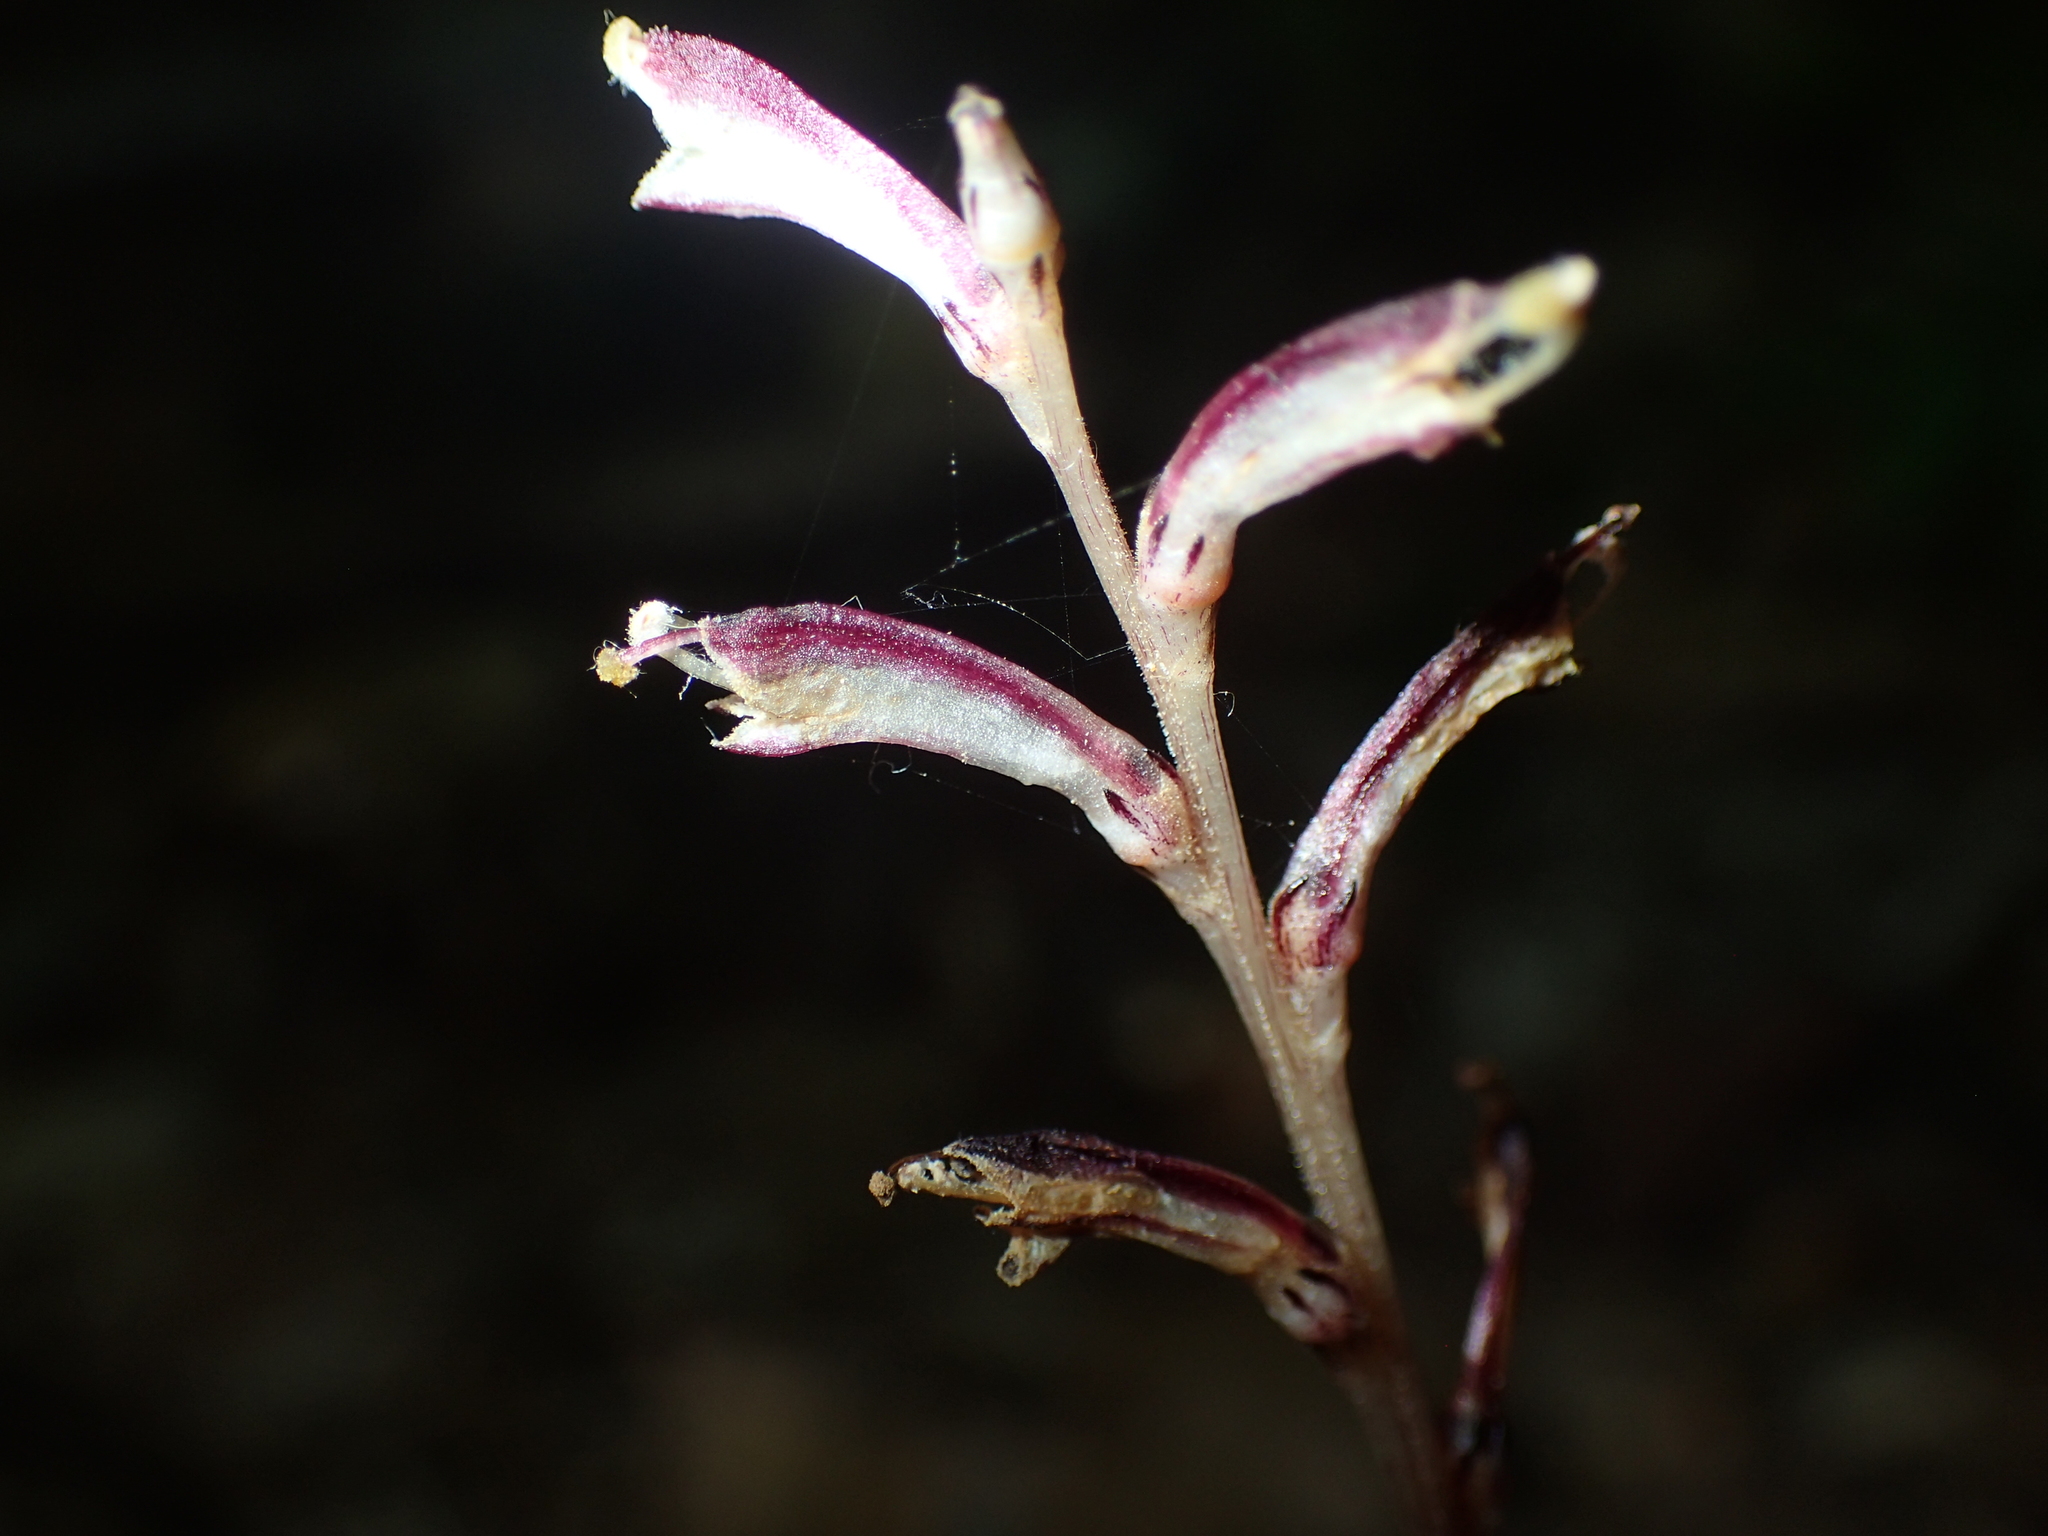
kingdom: Plantae
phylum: Tracheophyta
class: Magnoliopsida
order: Lamiales
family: Orobanchaceae
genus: Epifagus
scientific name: Epifagus virginiana
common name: Beechdrops
